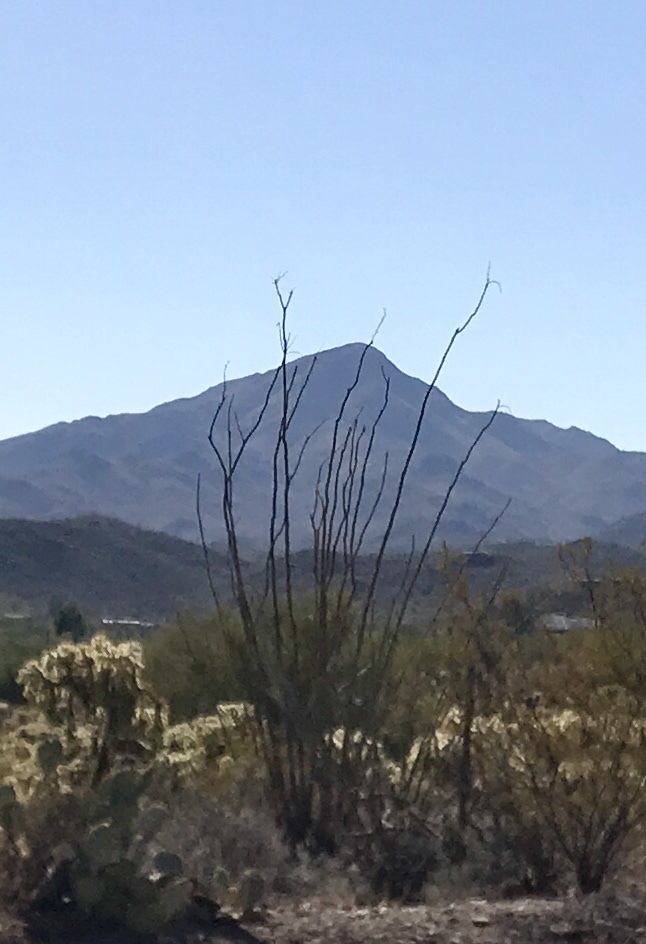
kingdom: Plantae
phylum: Tracheophyta
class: Magnoliopsida
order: Ericales
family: Fouquieriaceae
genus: Fouquieria
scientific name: Fouquieria splendens
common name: Vine-cactus
